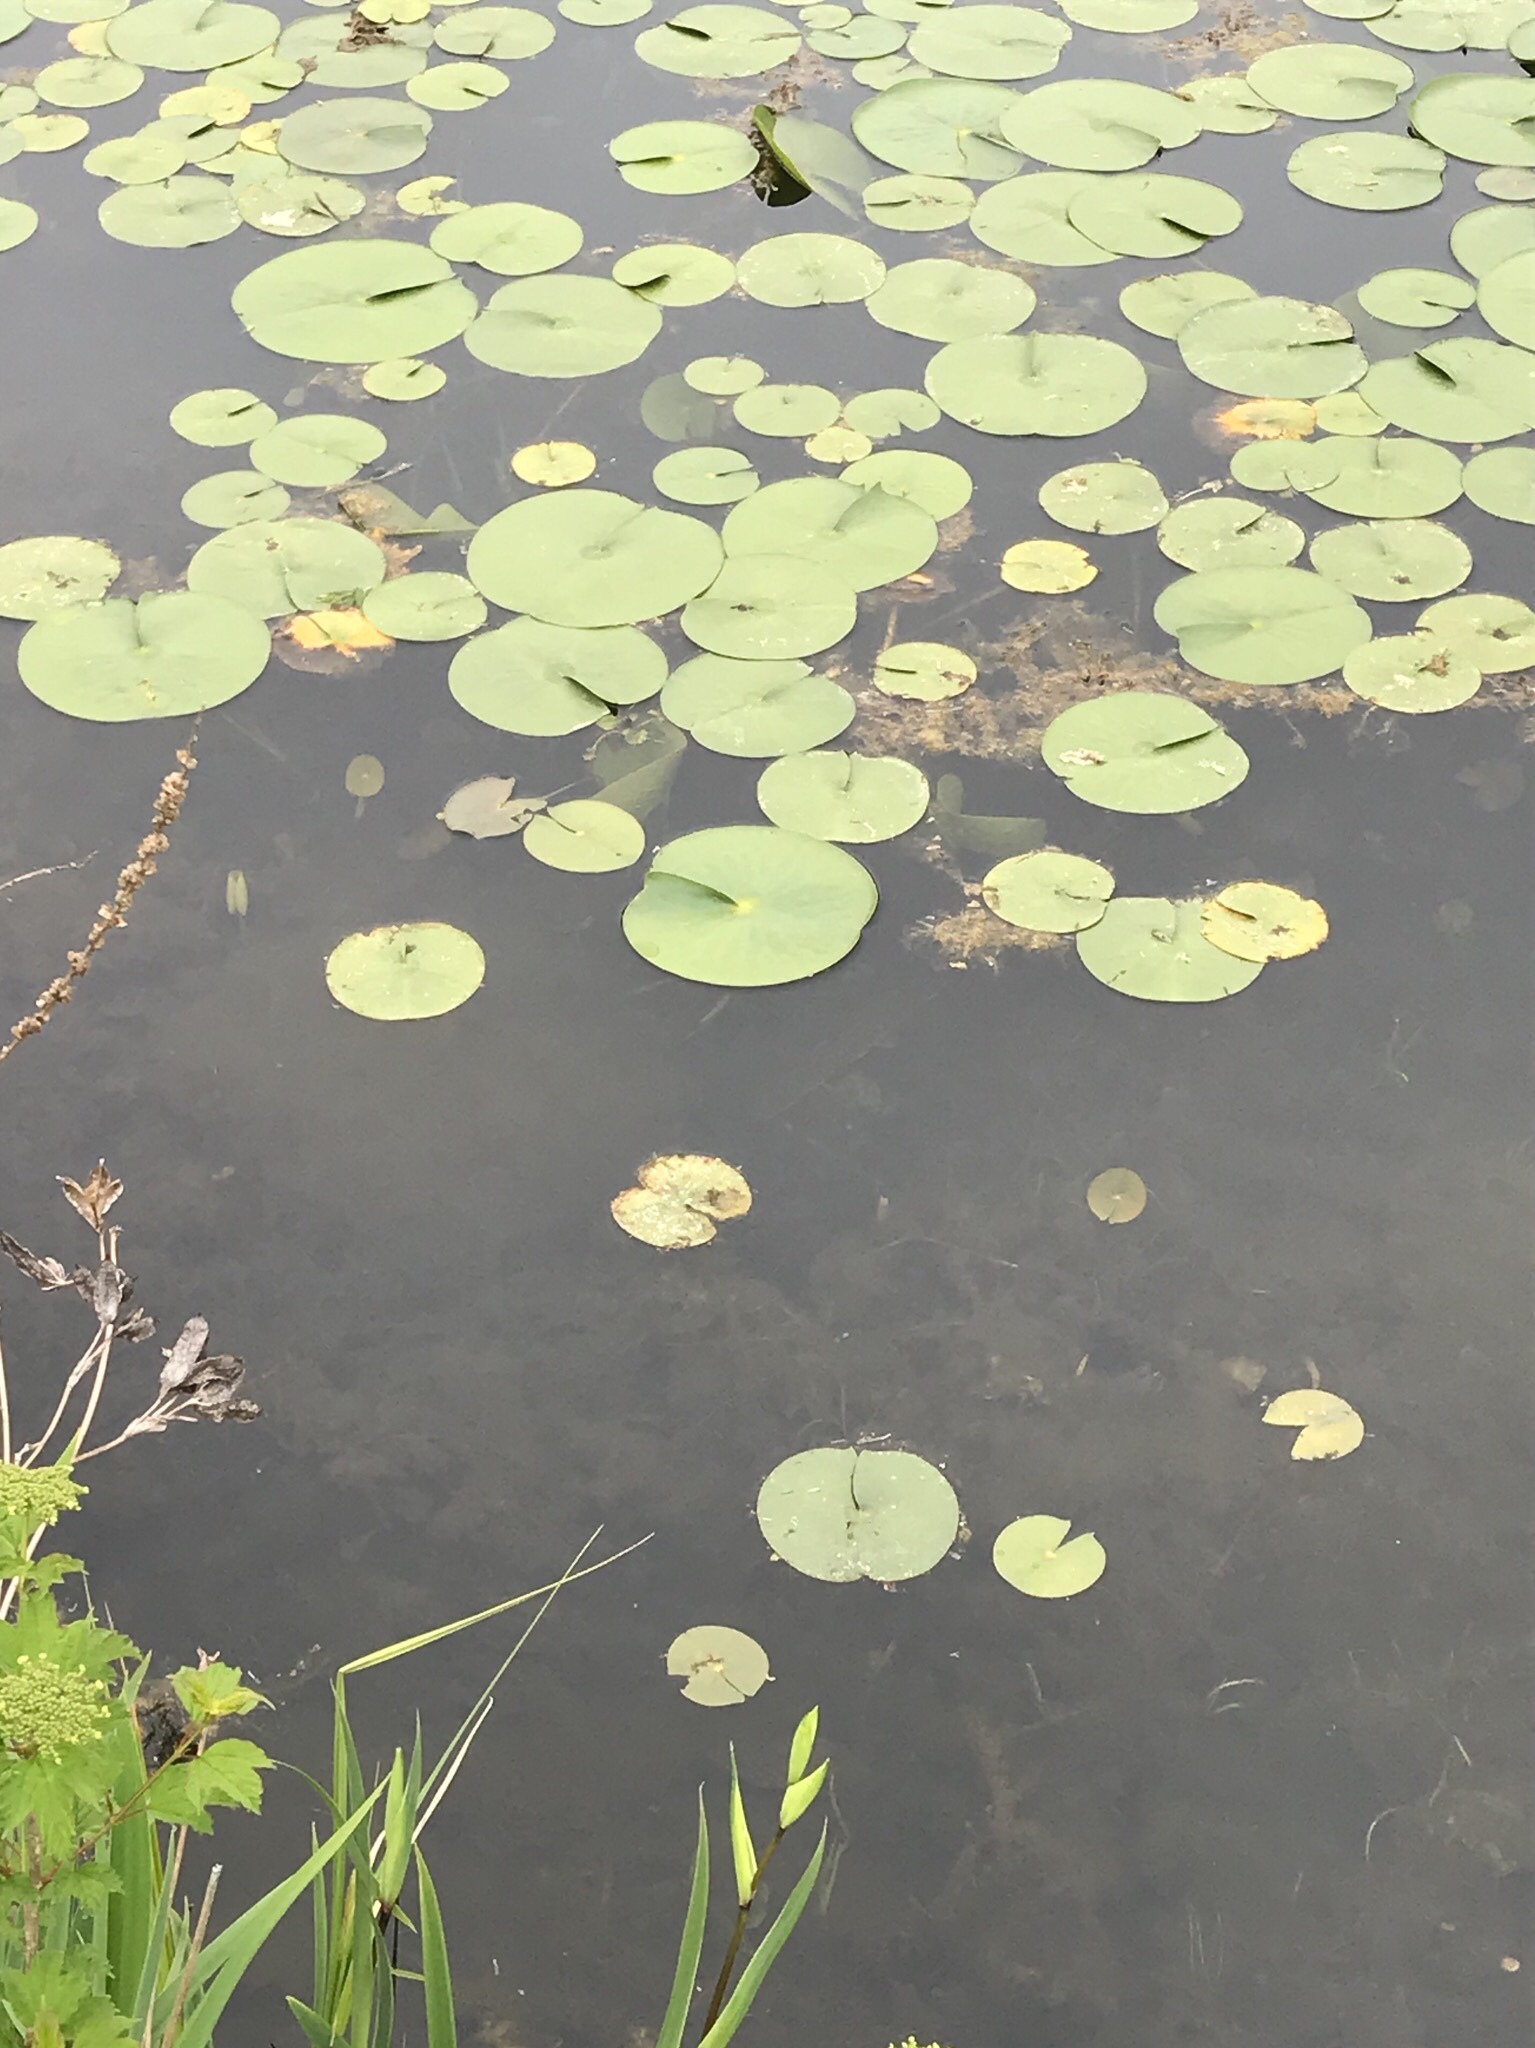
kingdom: Plantae
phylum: Tracheophyta
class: Magnoliopsida
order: Nymphaeales
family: Nymphaeaceae
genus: Nymphaea
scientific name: Nymphaea odorata
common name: Fragrant water-lily
